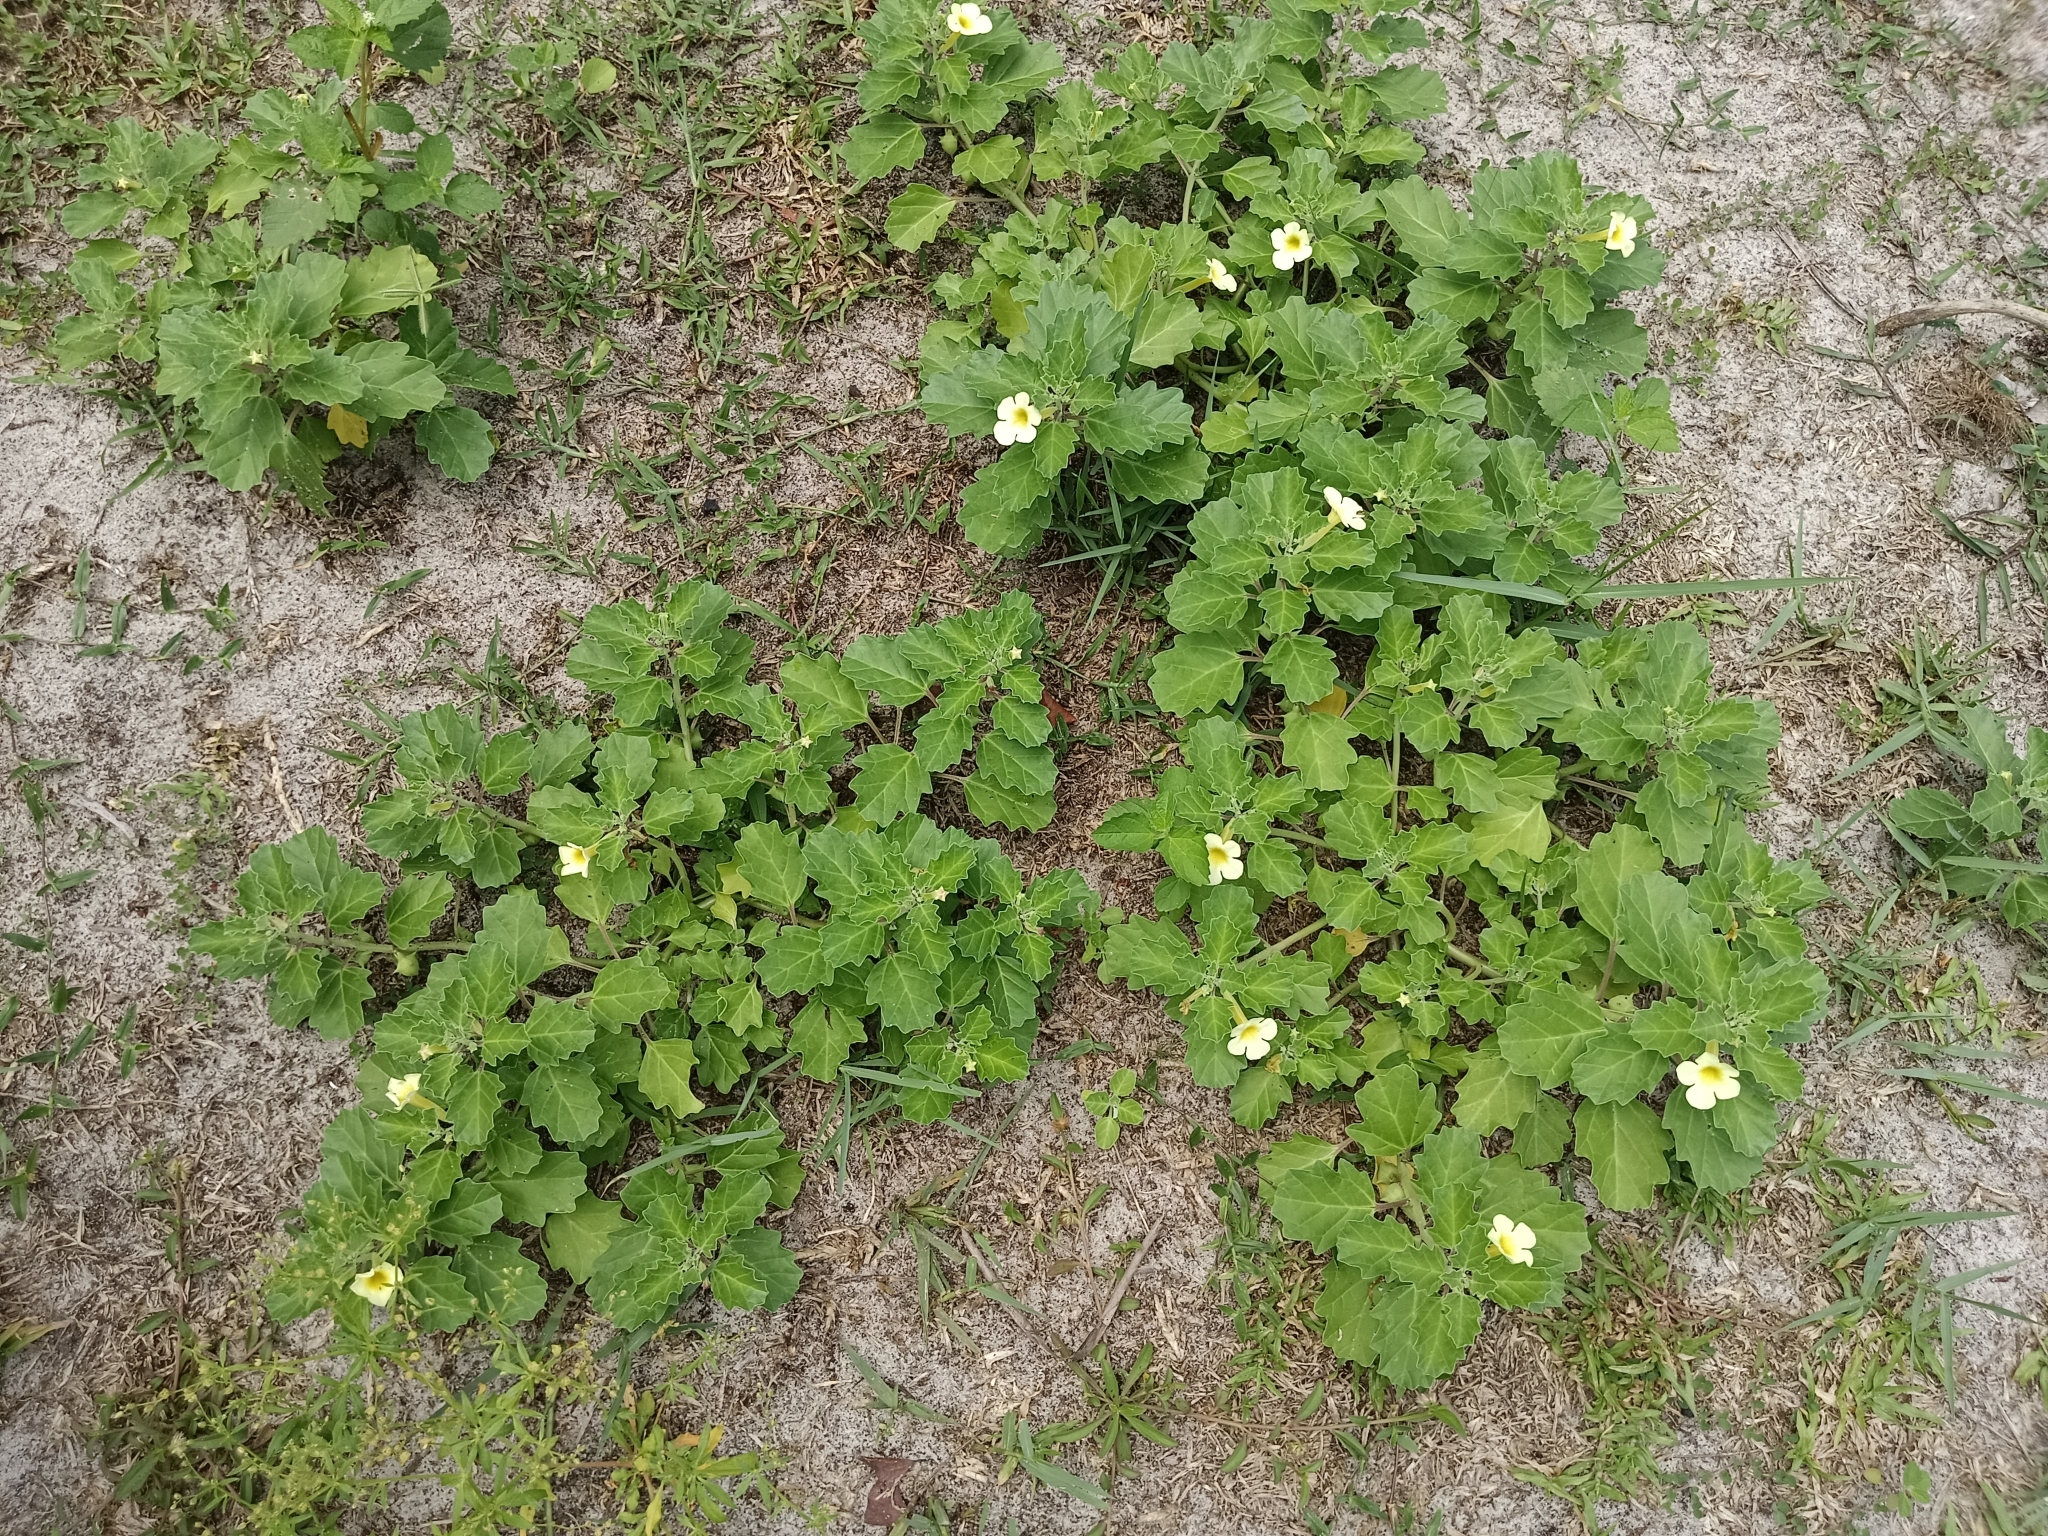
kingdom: Plantae
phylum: Tracheophyta
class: Magnoliopsida
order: Lamiales
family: Pedaliaceae
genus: Pedalium
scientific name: Pedalium murex
